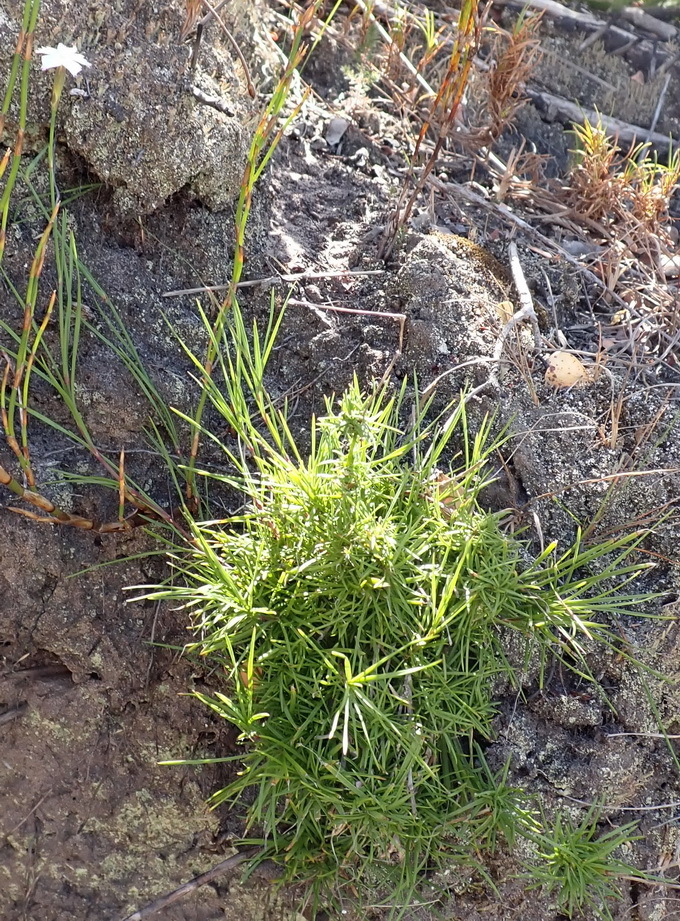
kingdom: Plantae
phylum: Tracheophyta
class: Magnoliopsida
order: Caryophyllales
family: Caryophyllaceae
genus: Dianthus
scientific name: Dianthus albens
